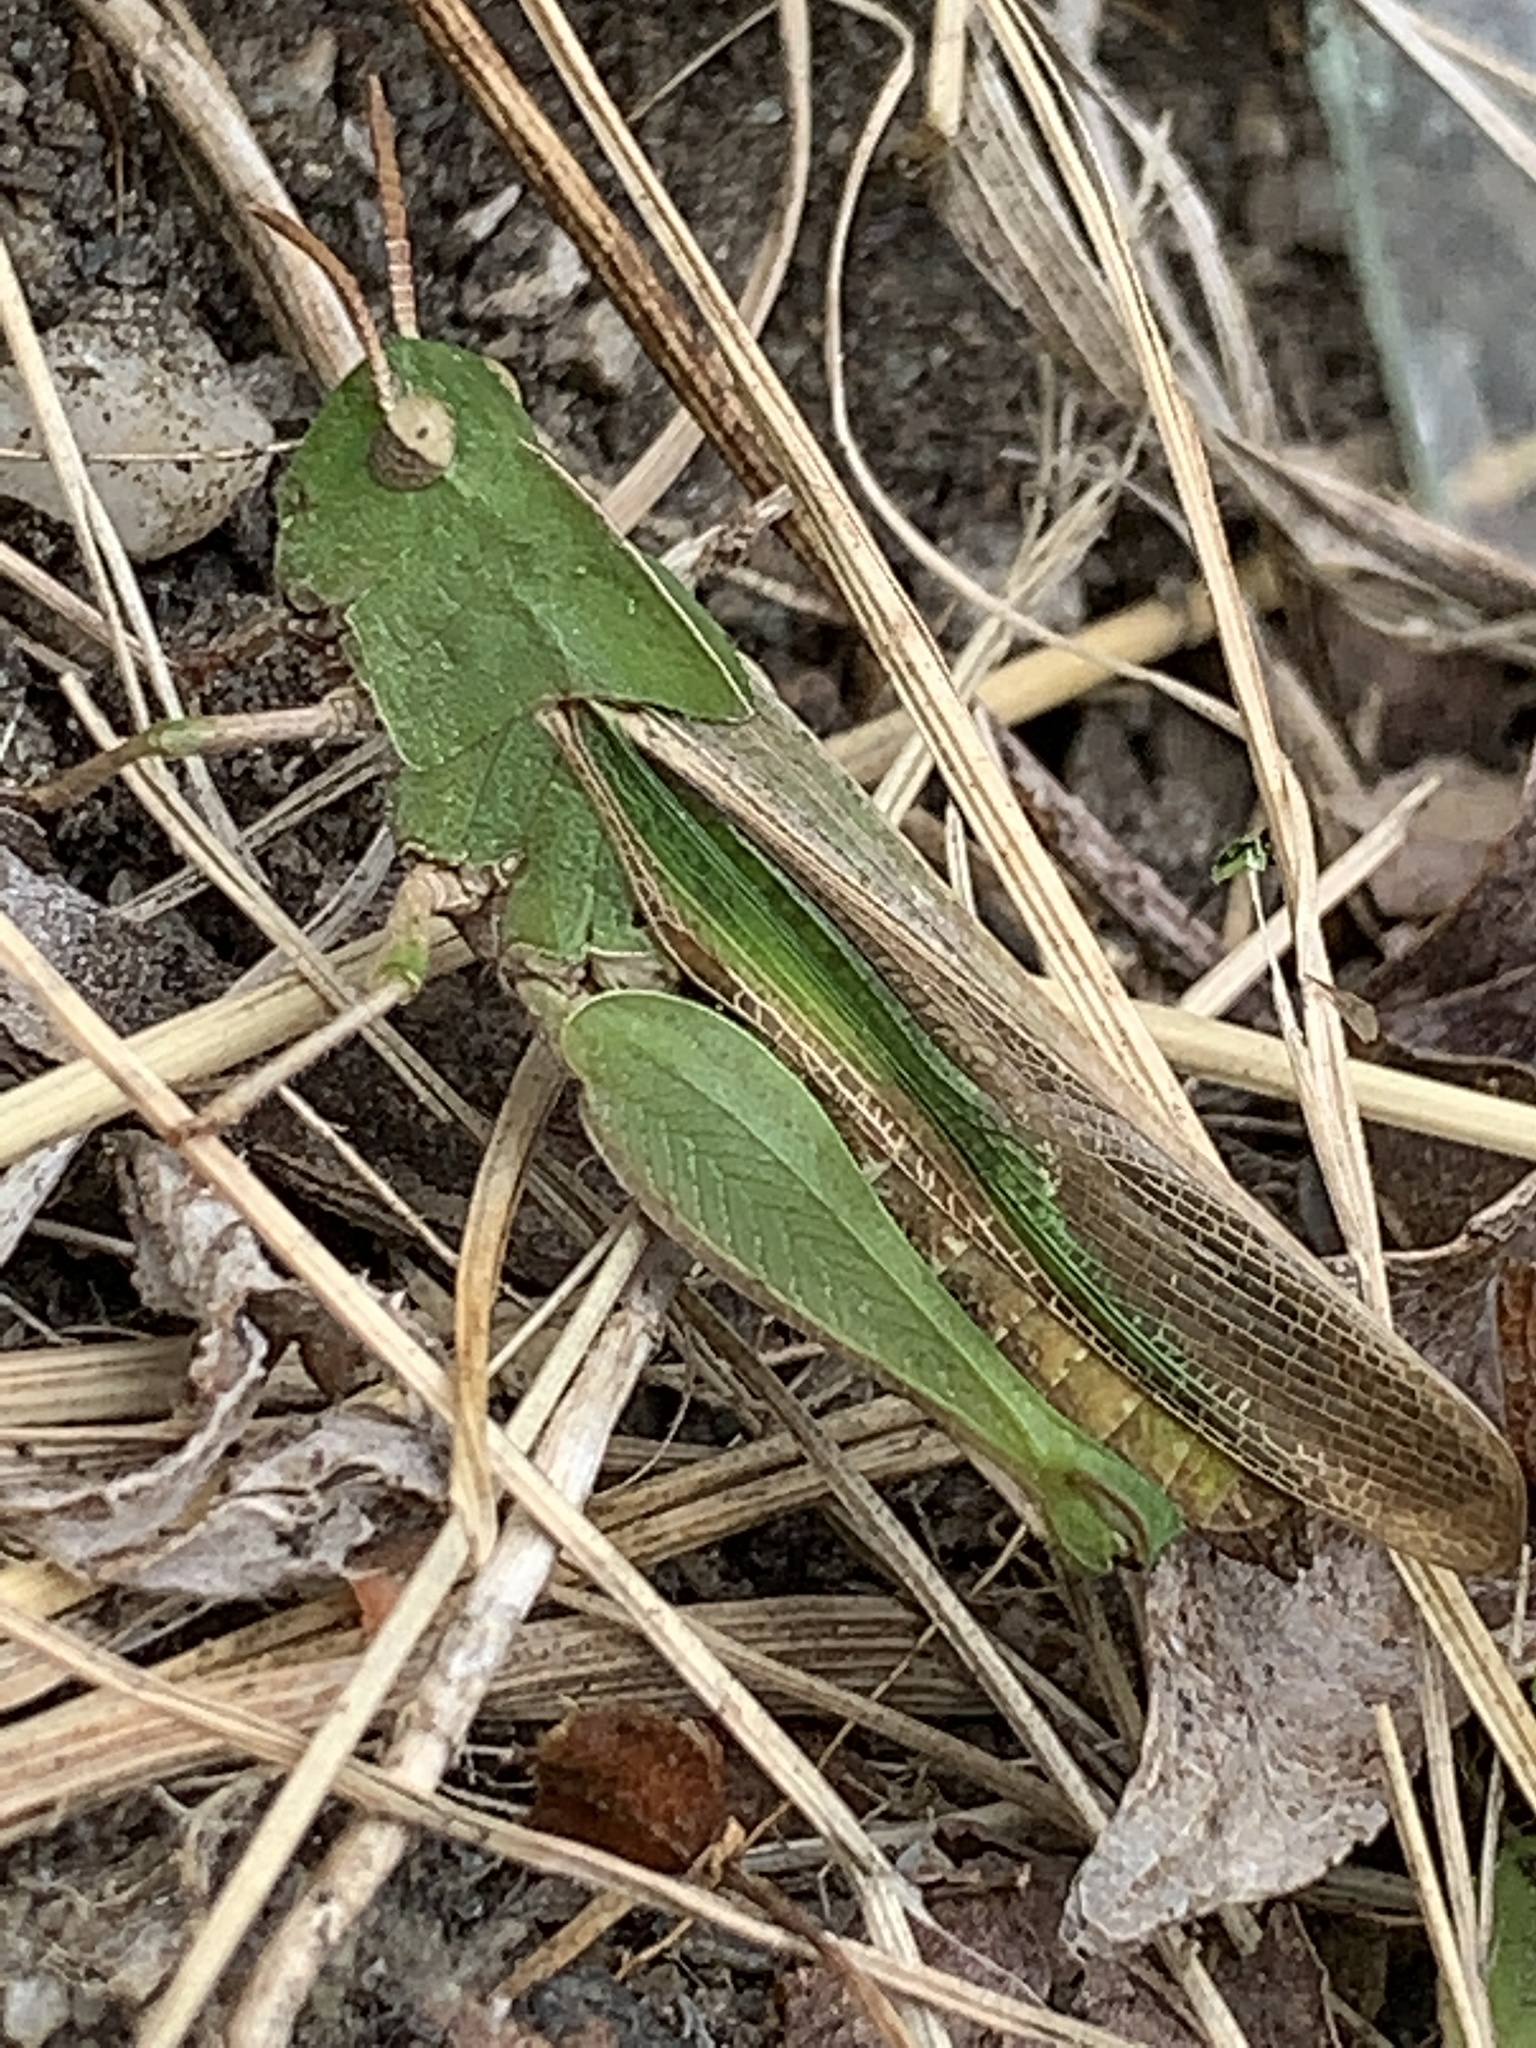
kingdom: Animalia
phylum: Arthropoda
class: Insecta
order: Orthoptera
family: Acrididae
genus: Chortophaga
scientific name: Chortophaga viridifasciata
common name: Green-striped grasshopper
